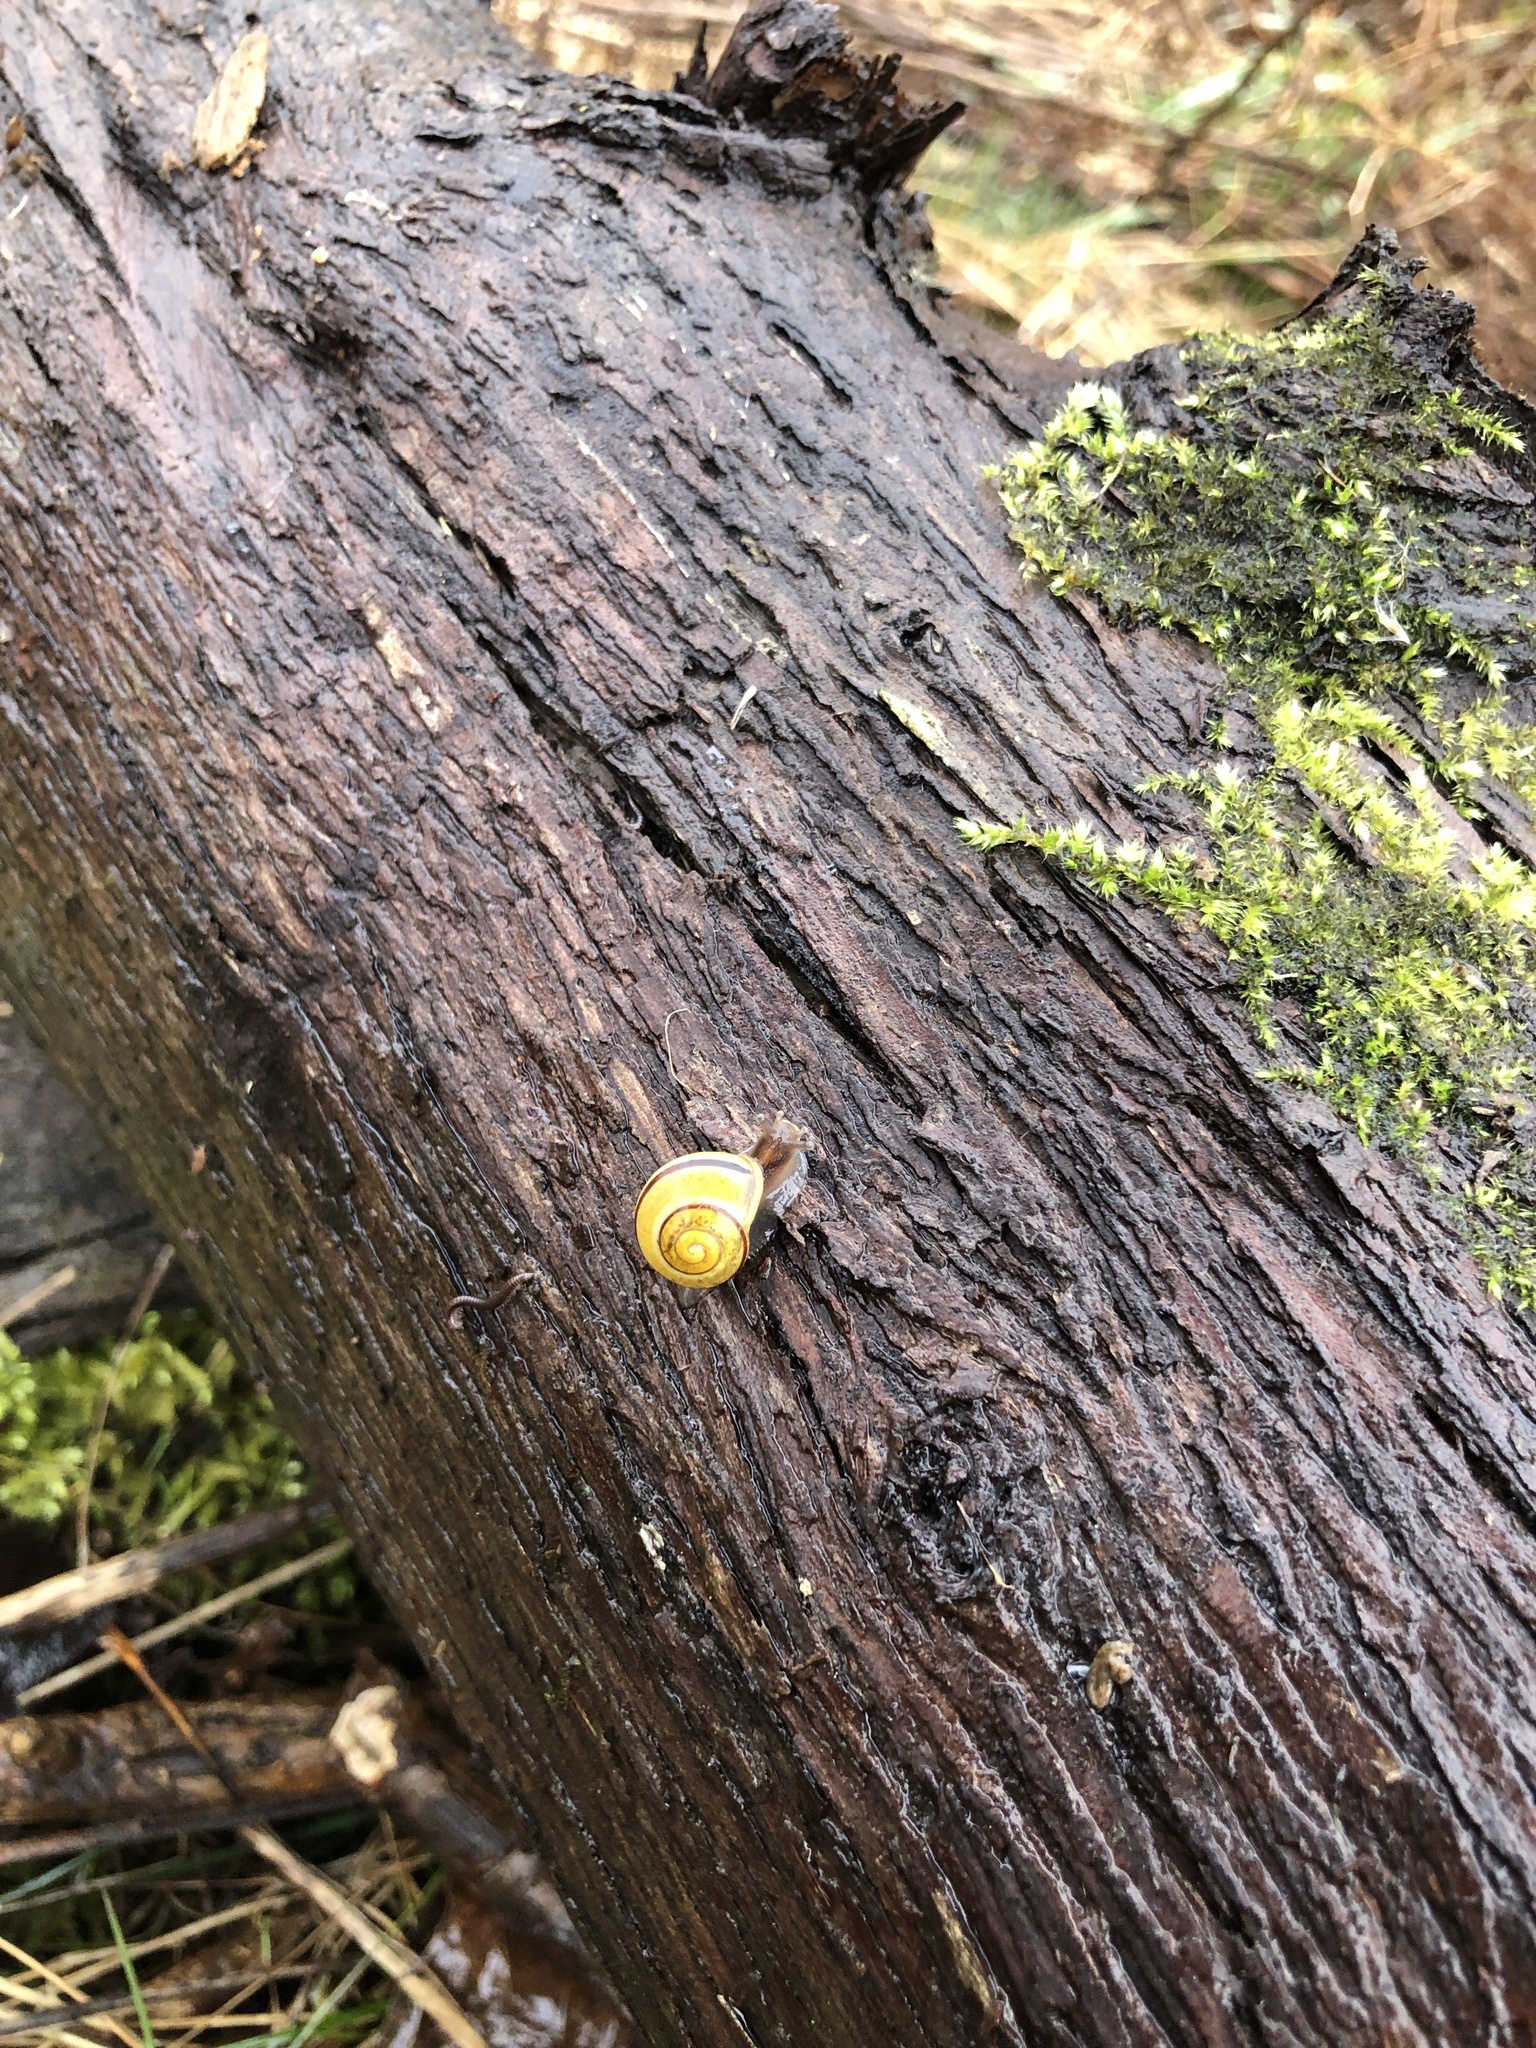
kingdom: Animalia
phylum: Mollusca
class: Gastropoda
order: Stylommatophora
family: Helicidae
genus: Cepaea
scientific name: Cepaea nemoralis
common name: Grovesnail
